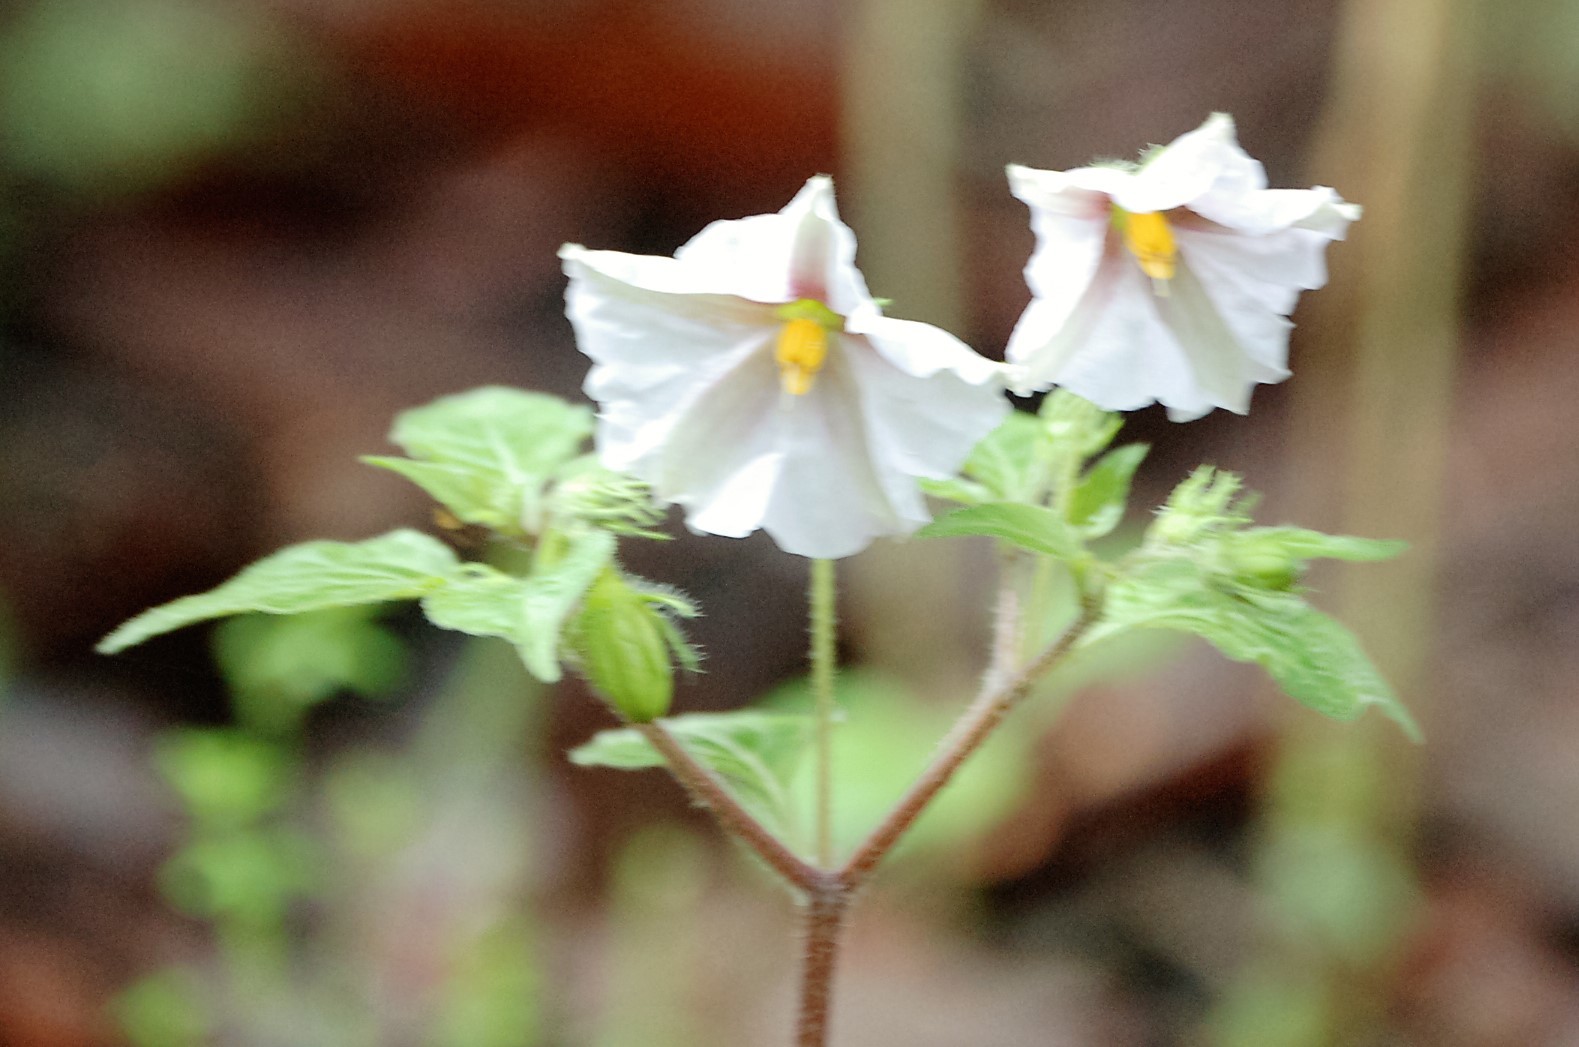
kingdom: Plantae
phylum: Tracheophyta
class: Magnoliopsida
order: Solanales
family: Solanaceae
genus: Lycianthes
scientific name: Lycianthes ciliolata
